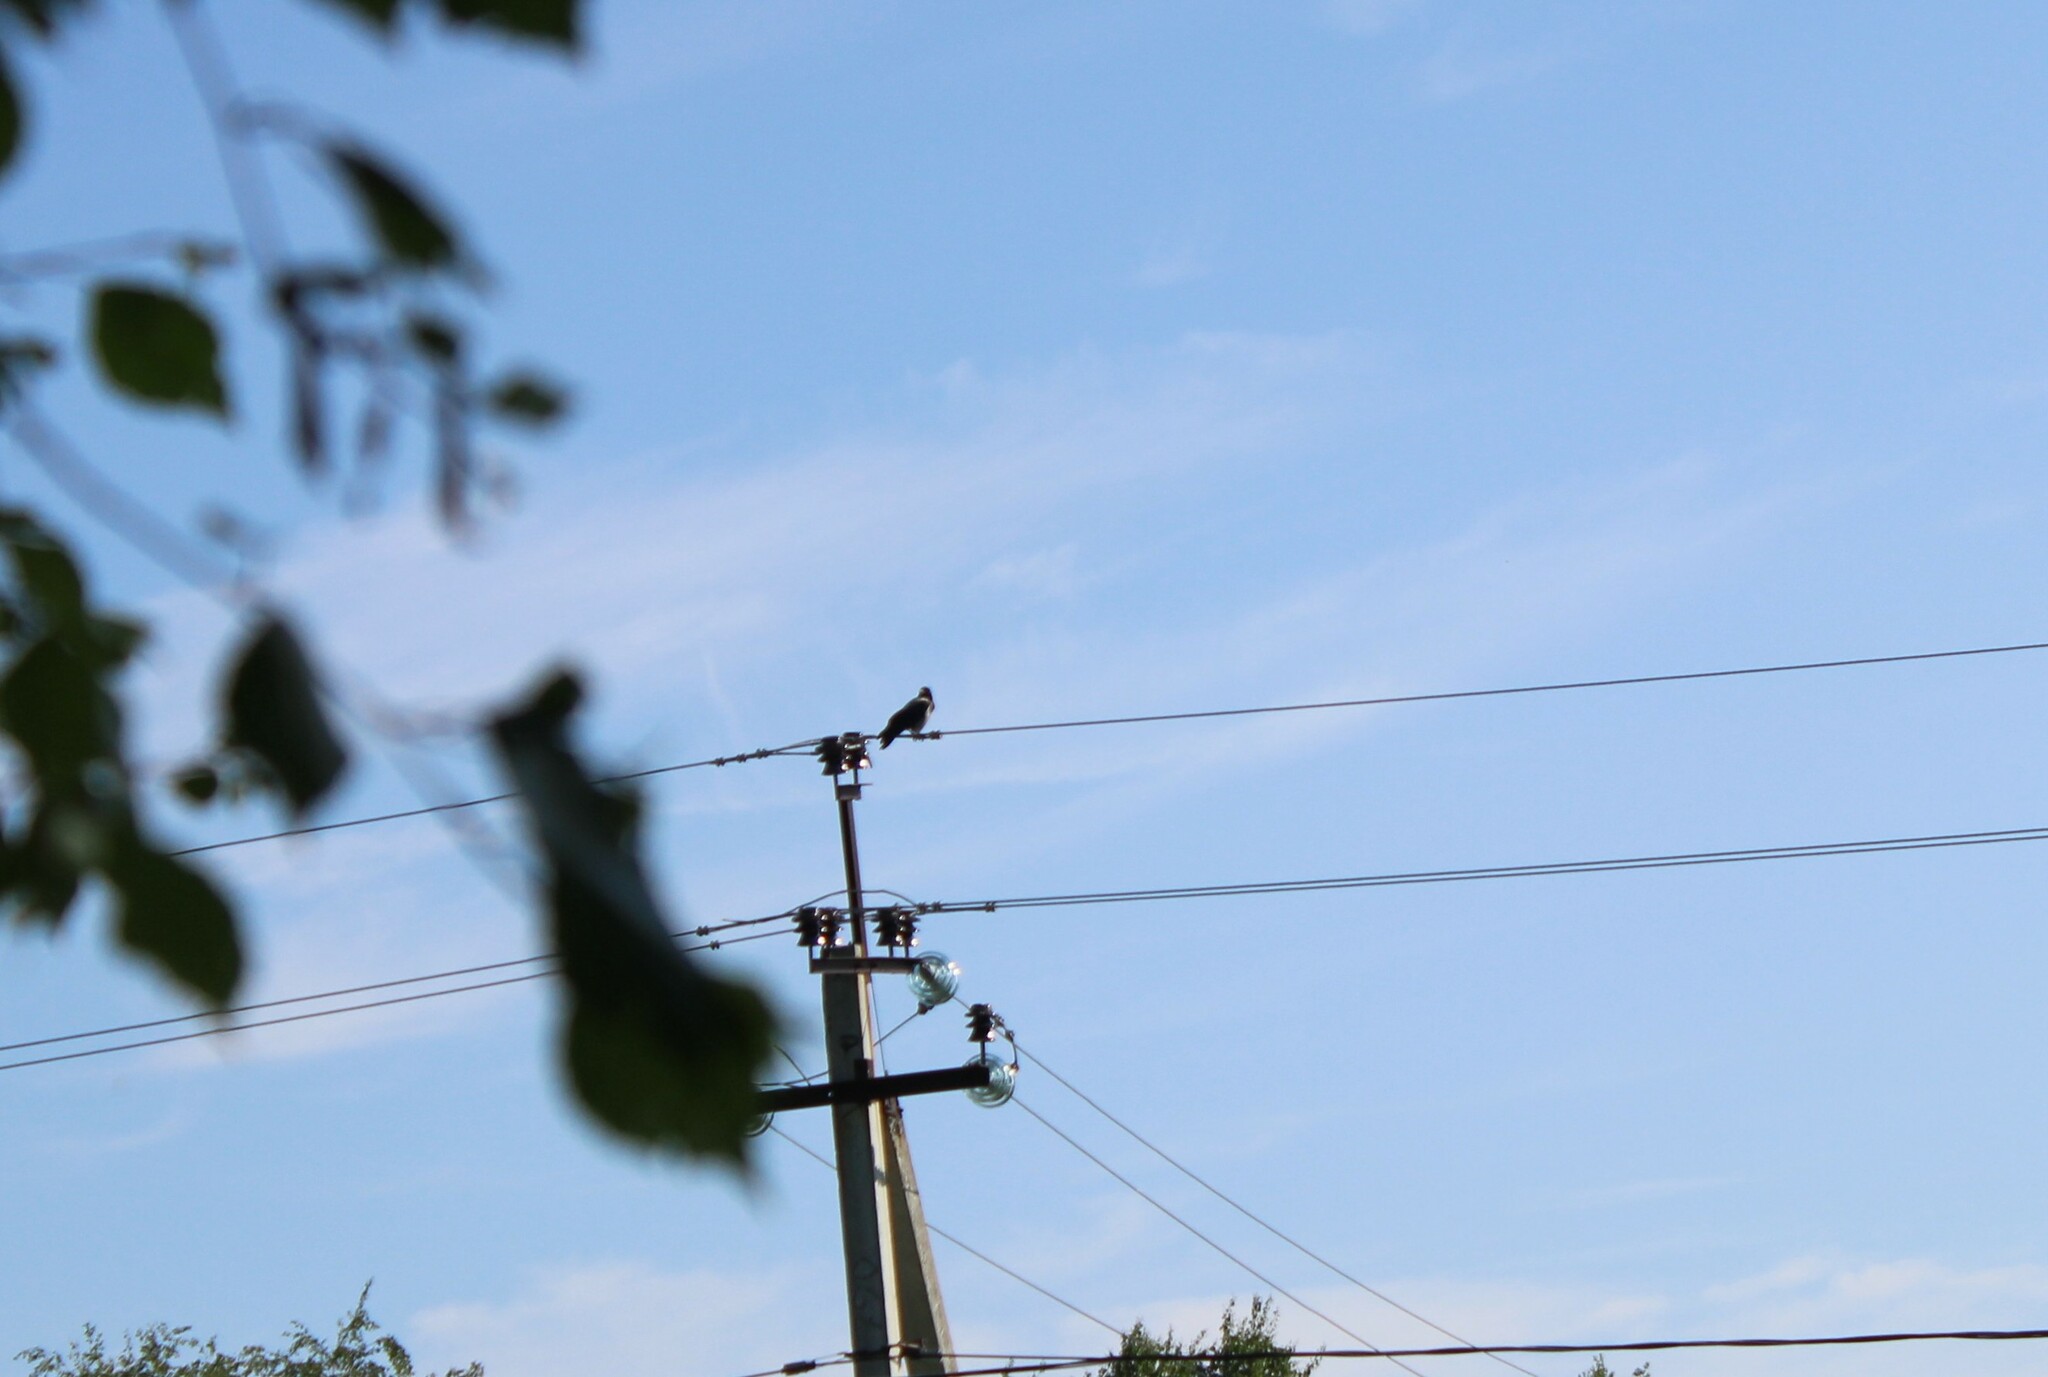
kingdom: Animalia
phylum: Chordata
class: Aves
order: Passeriformes
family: Corvidae
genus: Corvus
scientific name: Corvus cornix
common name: Hooded crow
